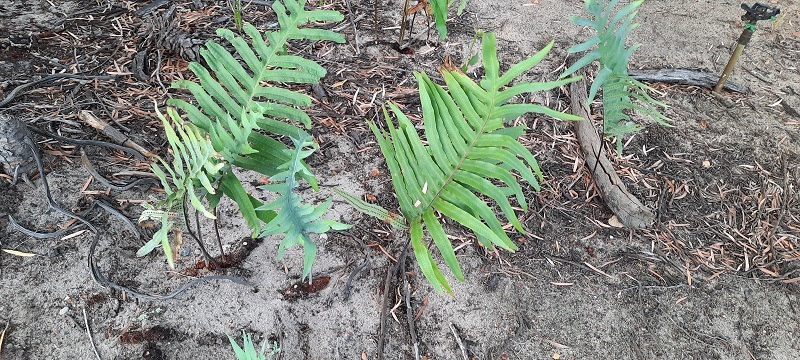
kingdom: Plantae
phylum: Tracheophyta
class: Polypodiopsida
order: Polypodiales
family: Polypodiaceae
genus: Phlebodium
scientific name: Phlebodium aureum
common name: Gold-foot fern
